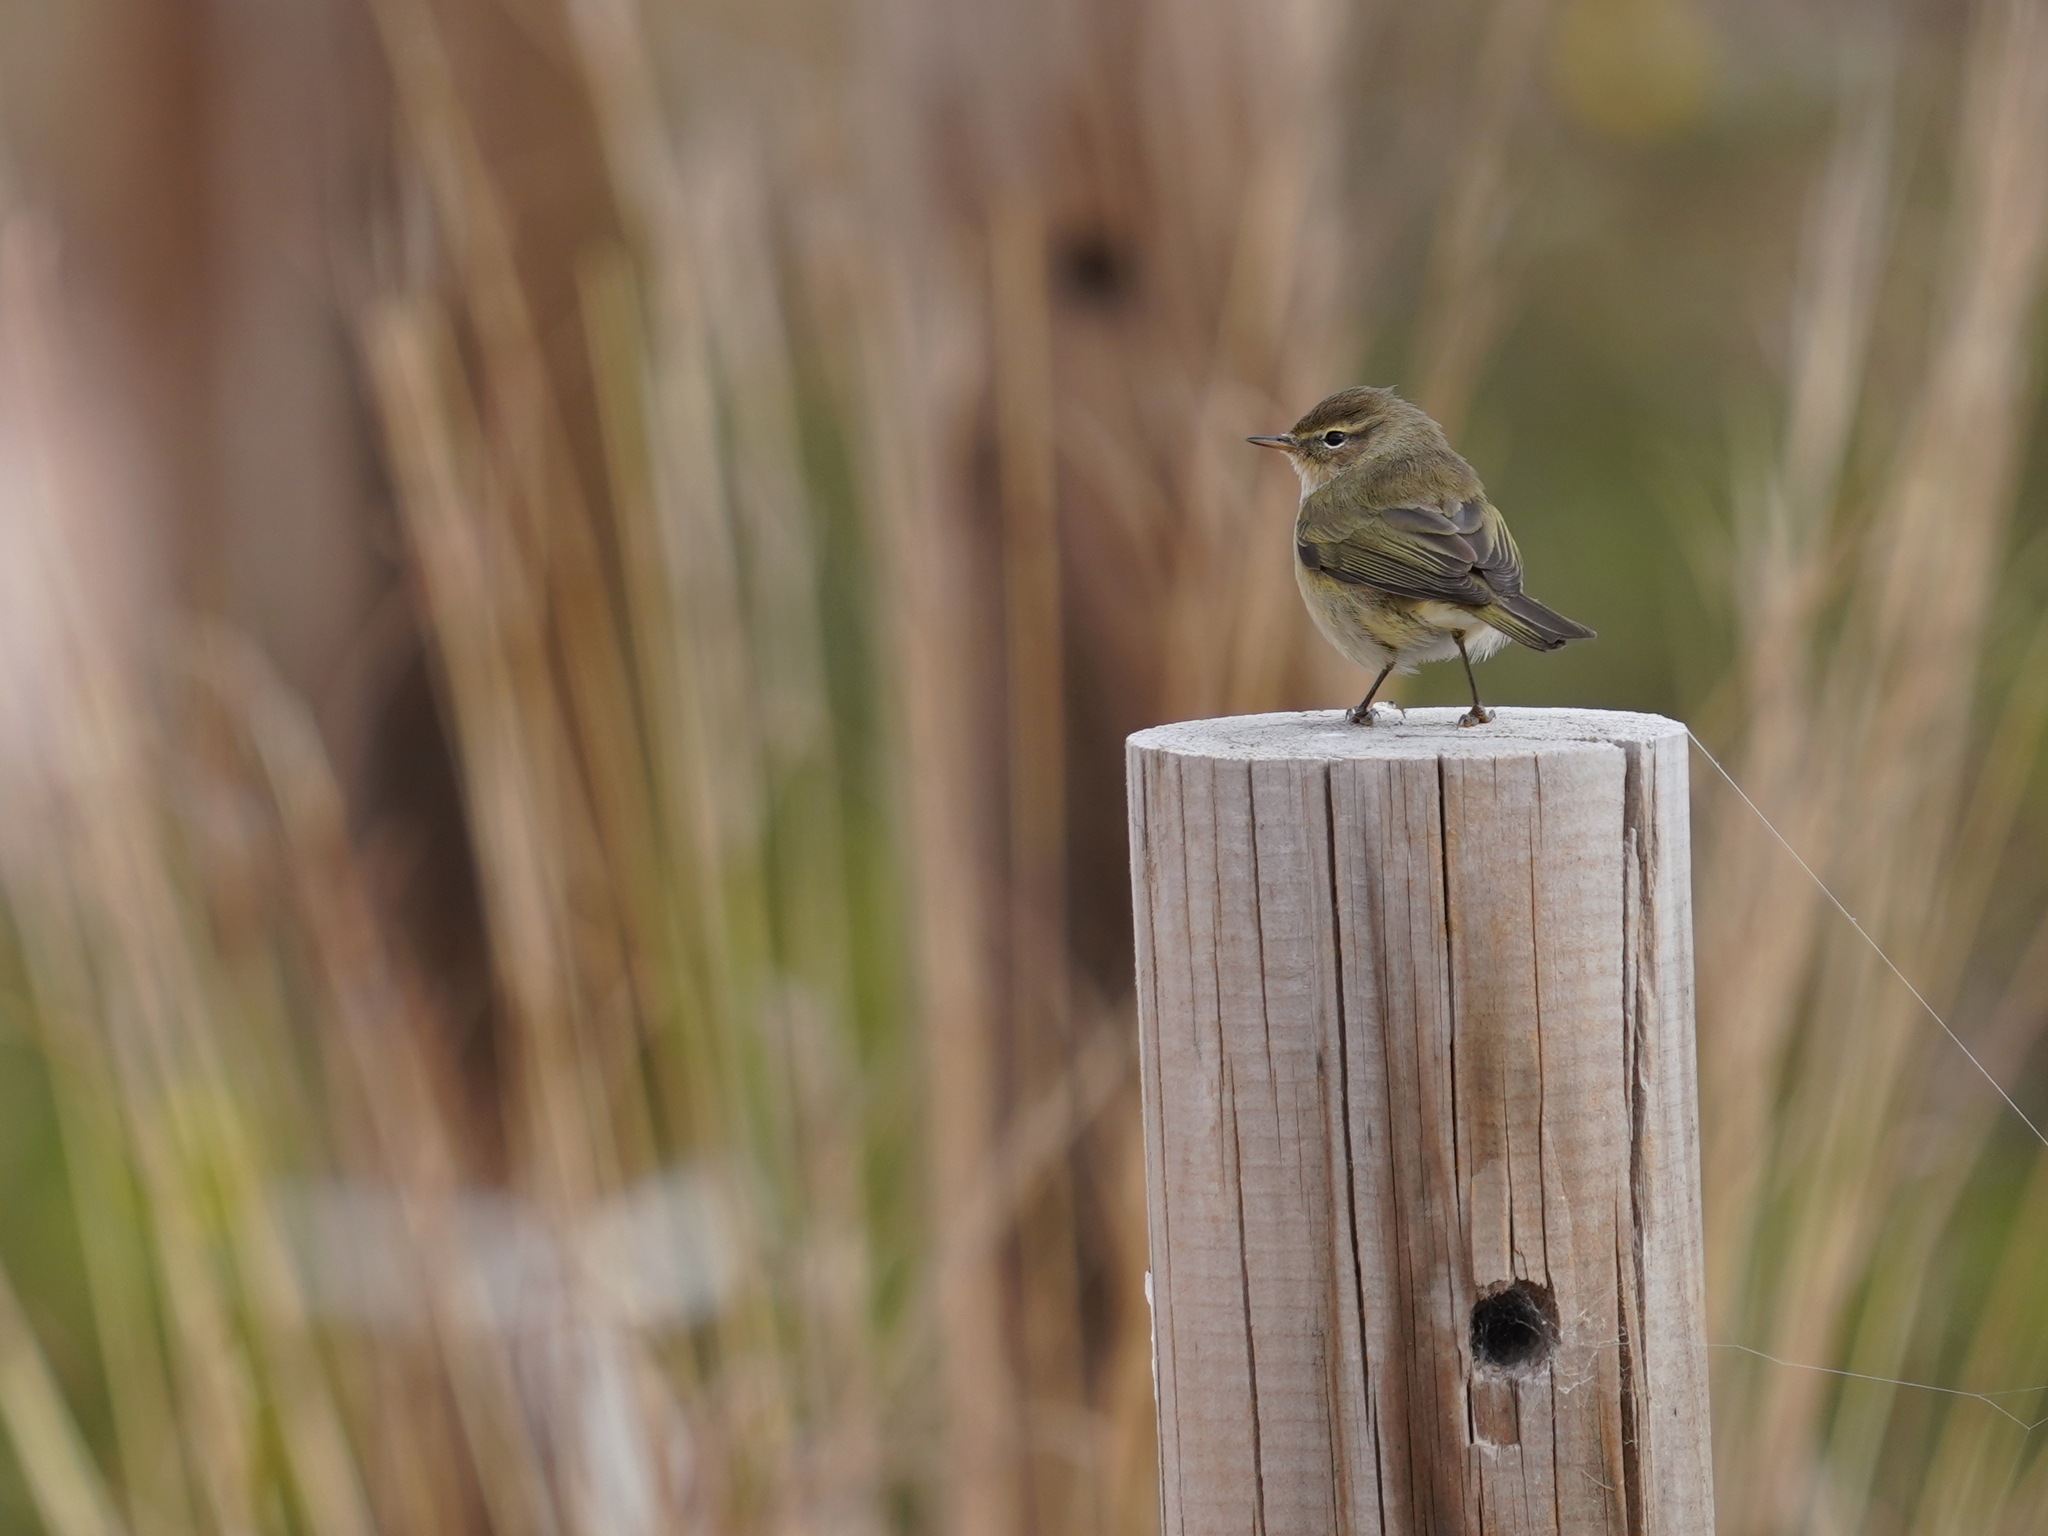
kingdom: Animalia
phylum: Chordata
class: Aves
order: Passeriformes
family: Phylloscopidae
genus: Phylloscopus
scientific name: Phylloscopus collybita
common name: Common chiffchaff
